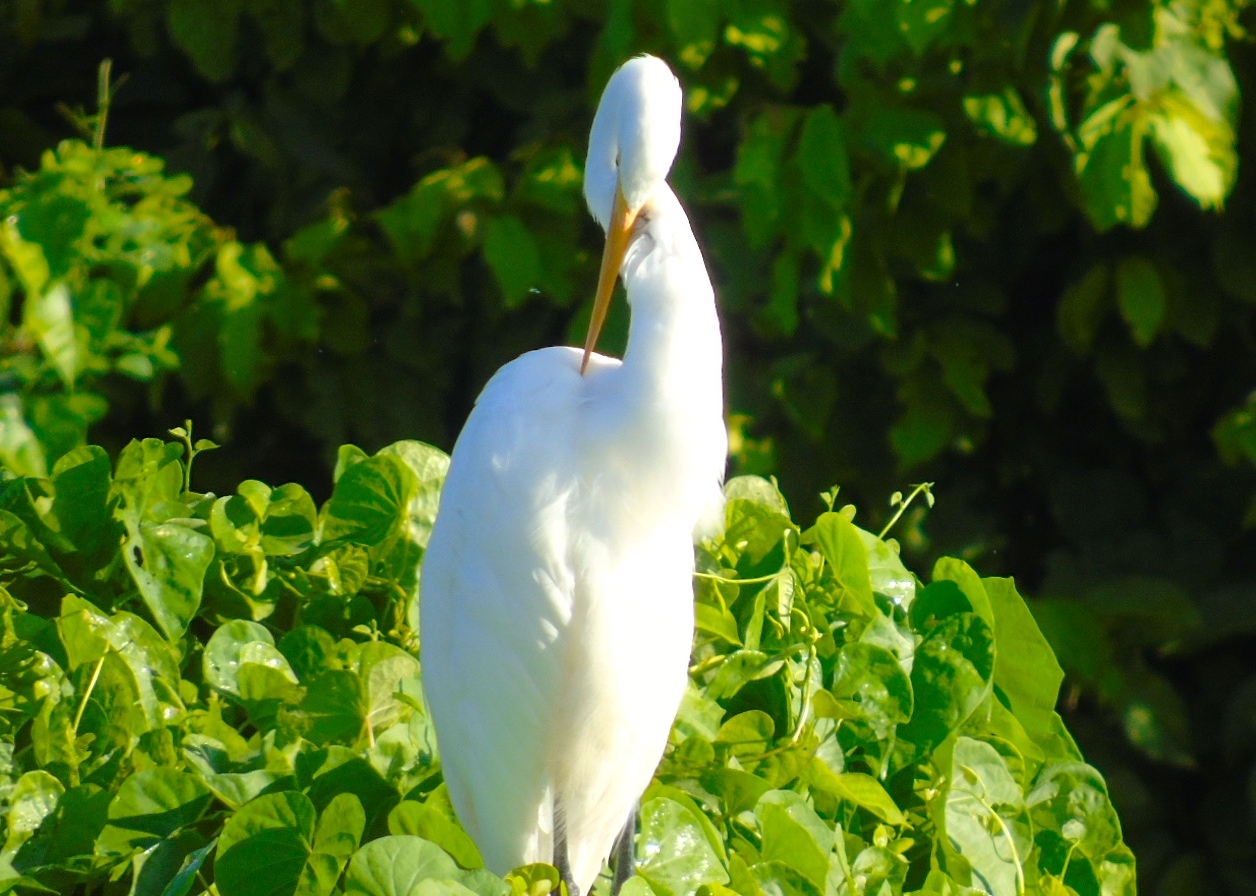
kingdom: Animalia
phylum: Chordata
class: Aves
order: Pelecaniformes
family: Ardeidae
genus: Ardea
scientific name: Ardea alba
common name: Great egret
